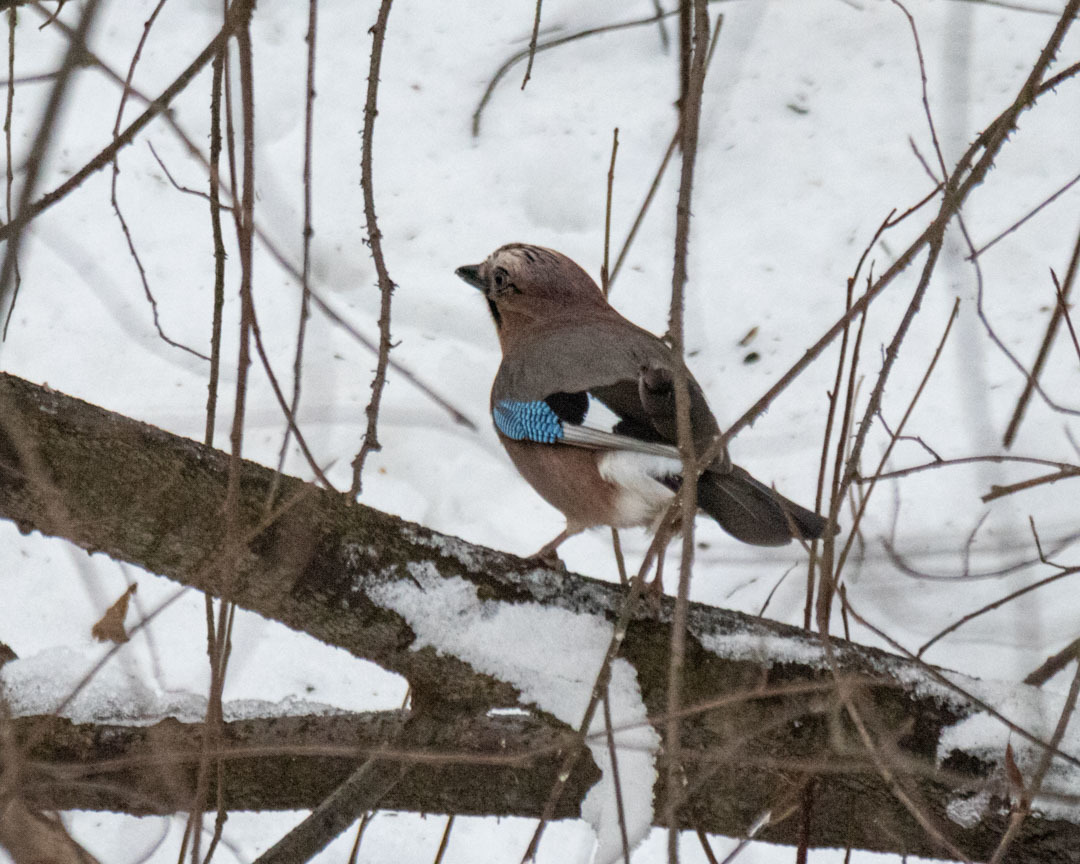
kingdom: Animalia
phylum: Chordata
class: Aves
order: Passeriformes
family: Corvidae
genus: Garrulus
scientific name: Garrulus glandarius
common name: Eurasian jay
